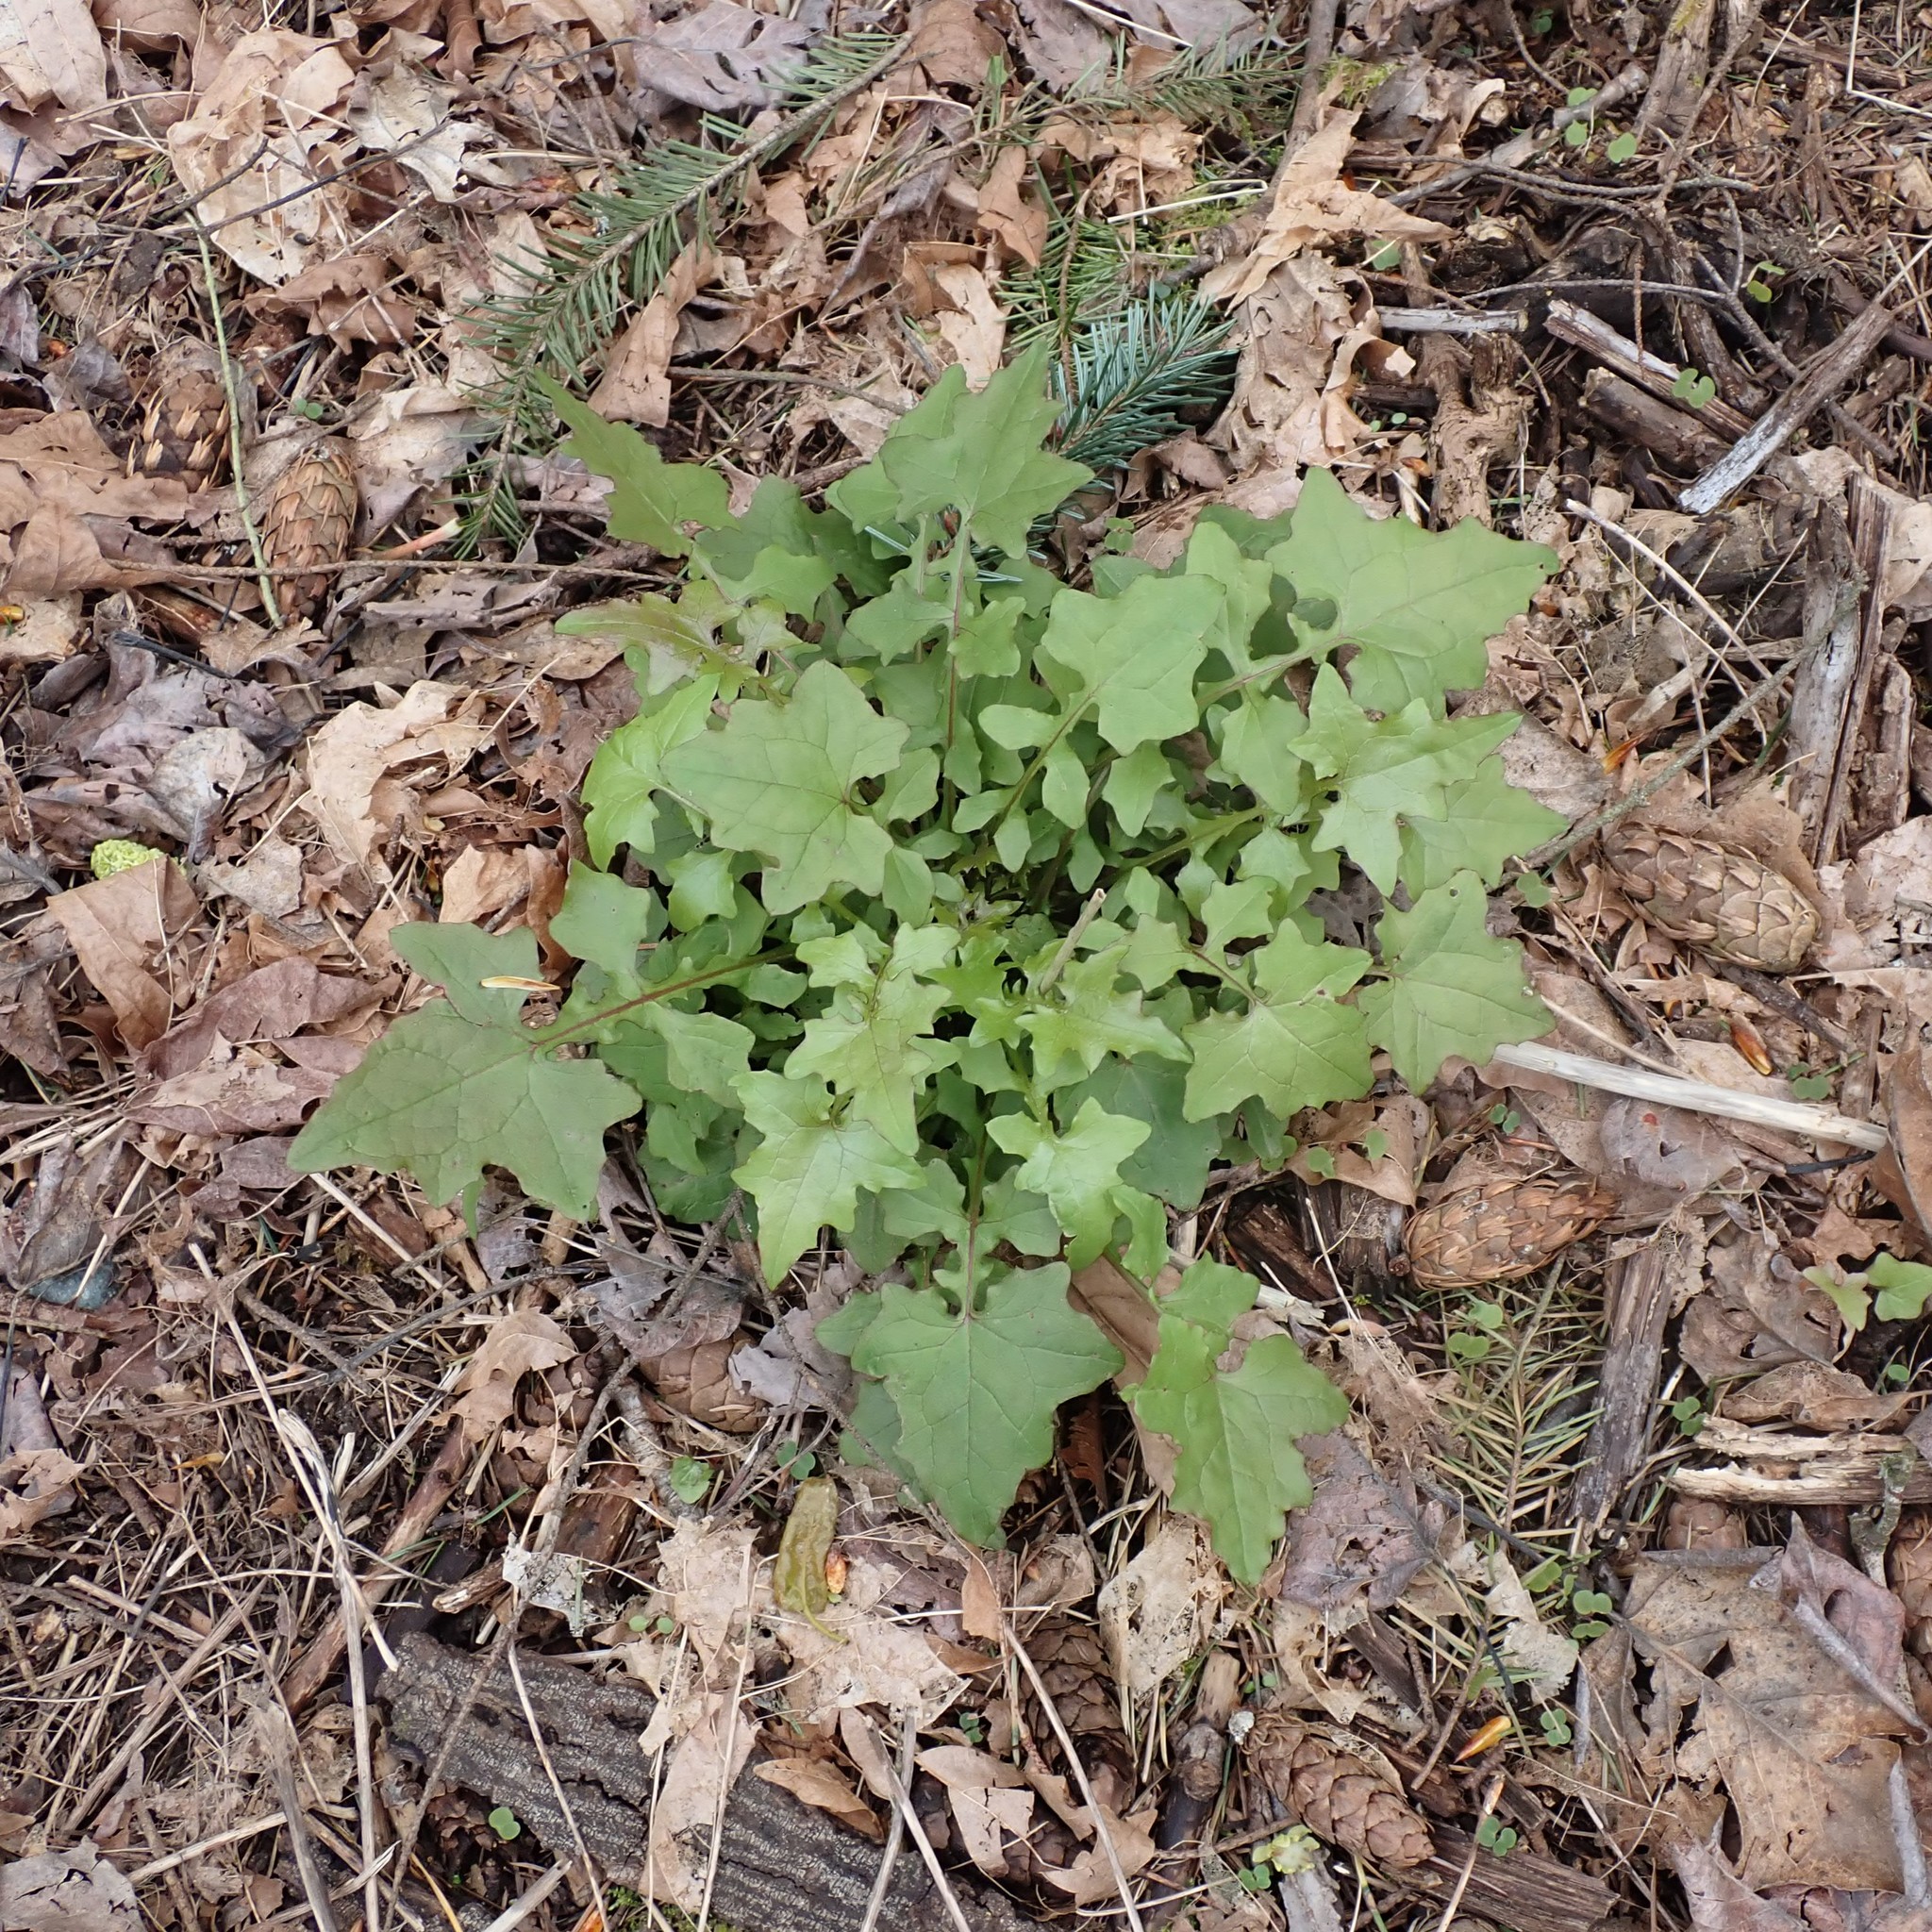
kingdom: Plantae
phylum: Tracheophyta
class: Magnoliopsida
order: Asterales
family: Asteraceae
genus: Mycelis
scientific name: Mycelis muralis
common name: Wall lettuce
